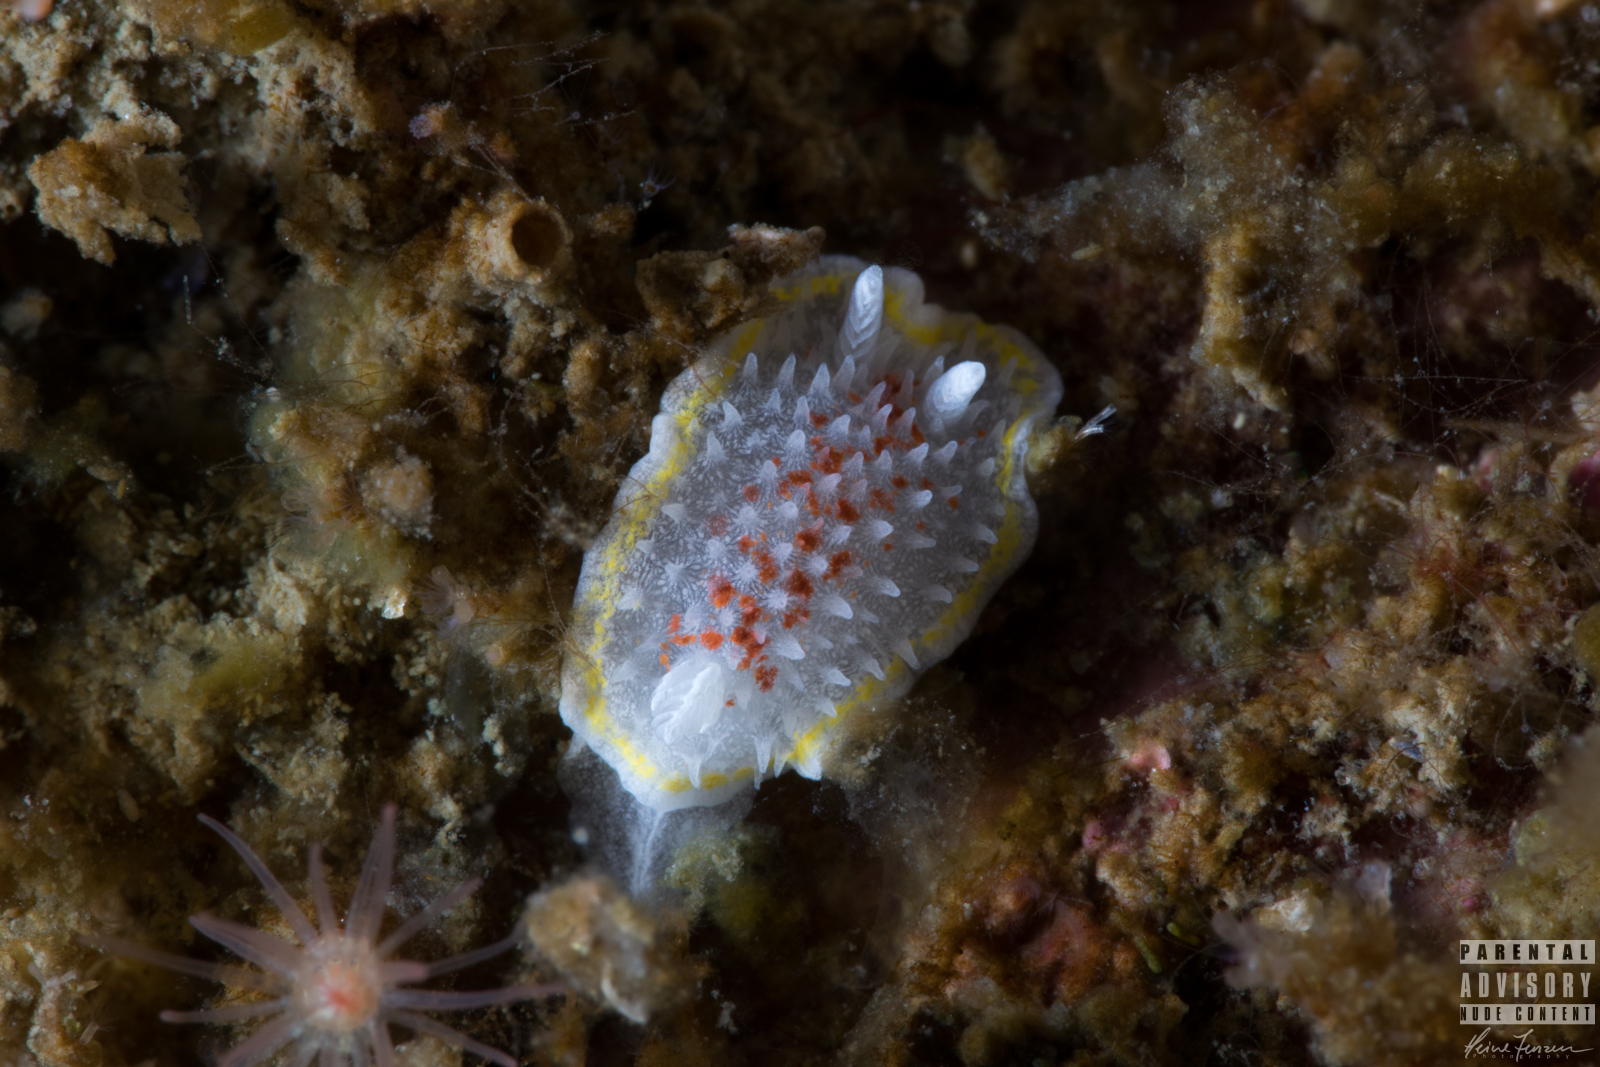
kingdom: Animalia
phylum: Mollusca
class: Gastropoda
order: Nudibranchia
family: Calycidorididae
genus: Diaphorodoris
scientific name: Diaphorodoris luteocincta
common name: Fried egg nudibranch
